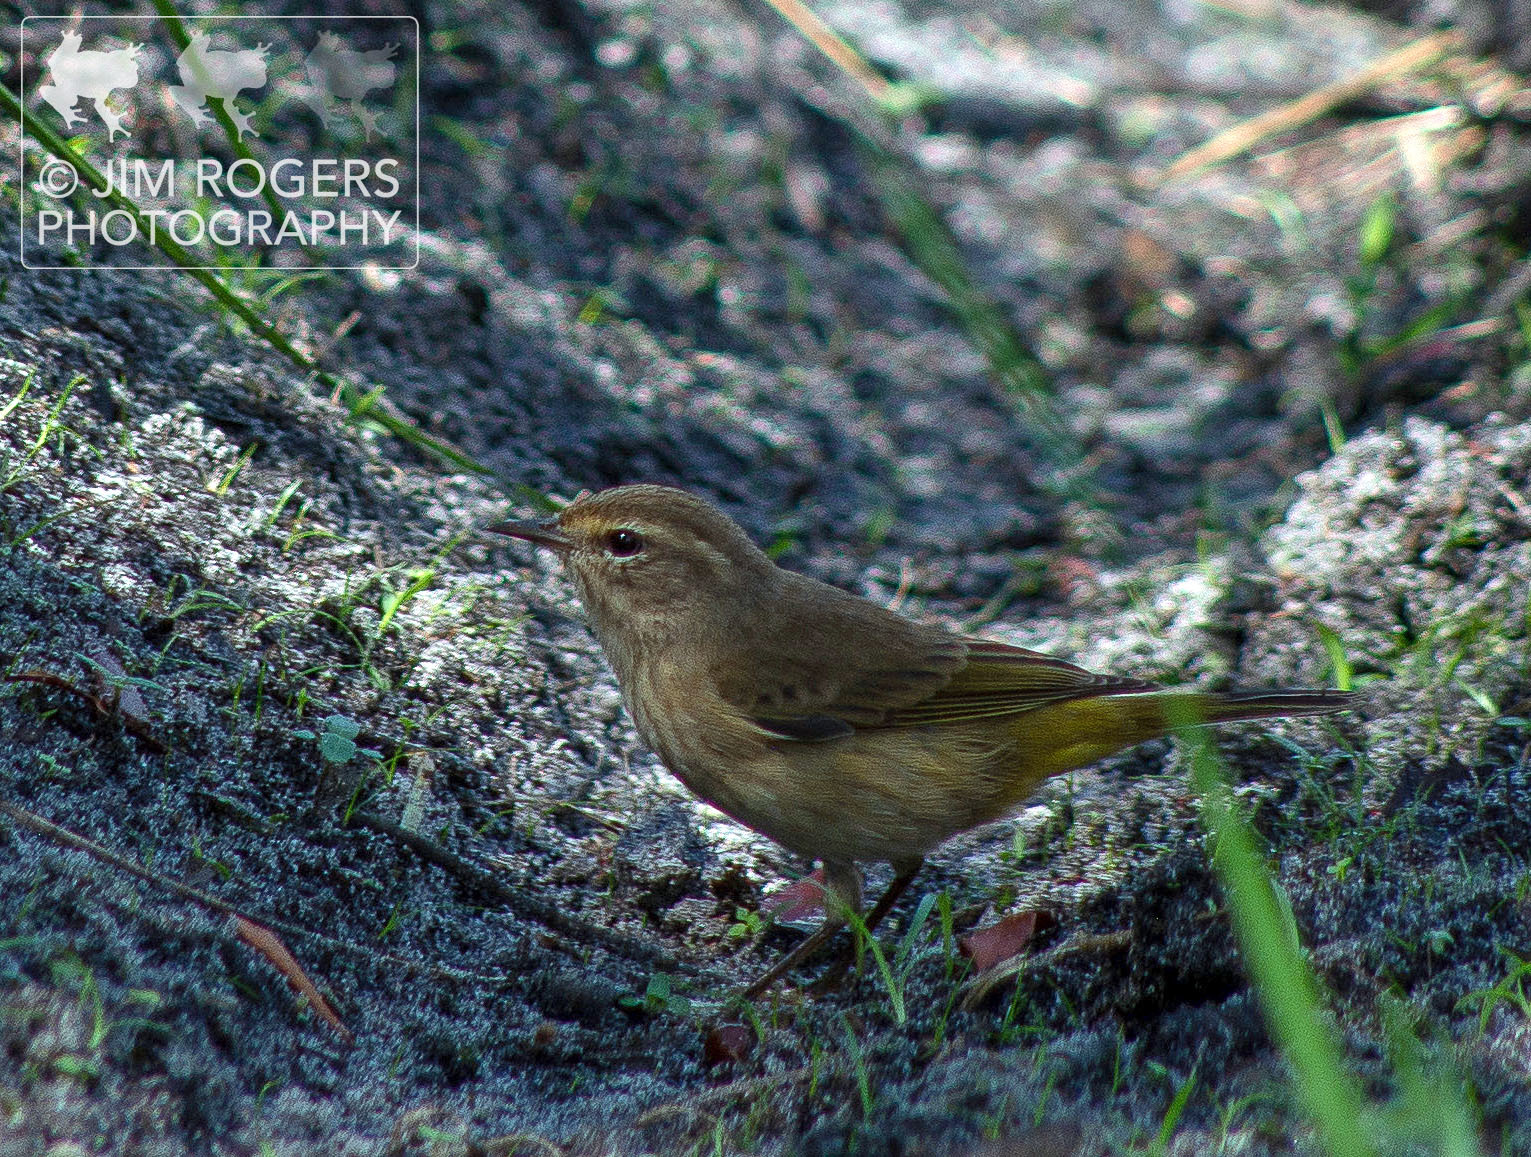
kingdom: Animalia
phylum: Chordata
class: Aves
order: Passeriformes
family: Parulidae
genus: Setophaga
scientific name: Setophaga palmarum
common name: Palm warbler
